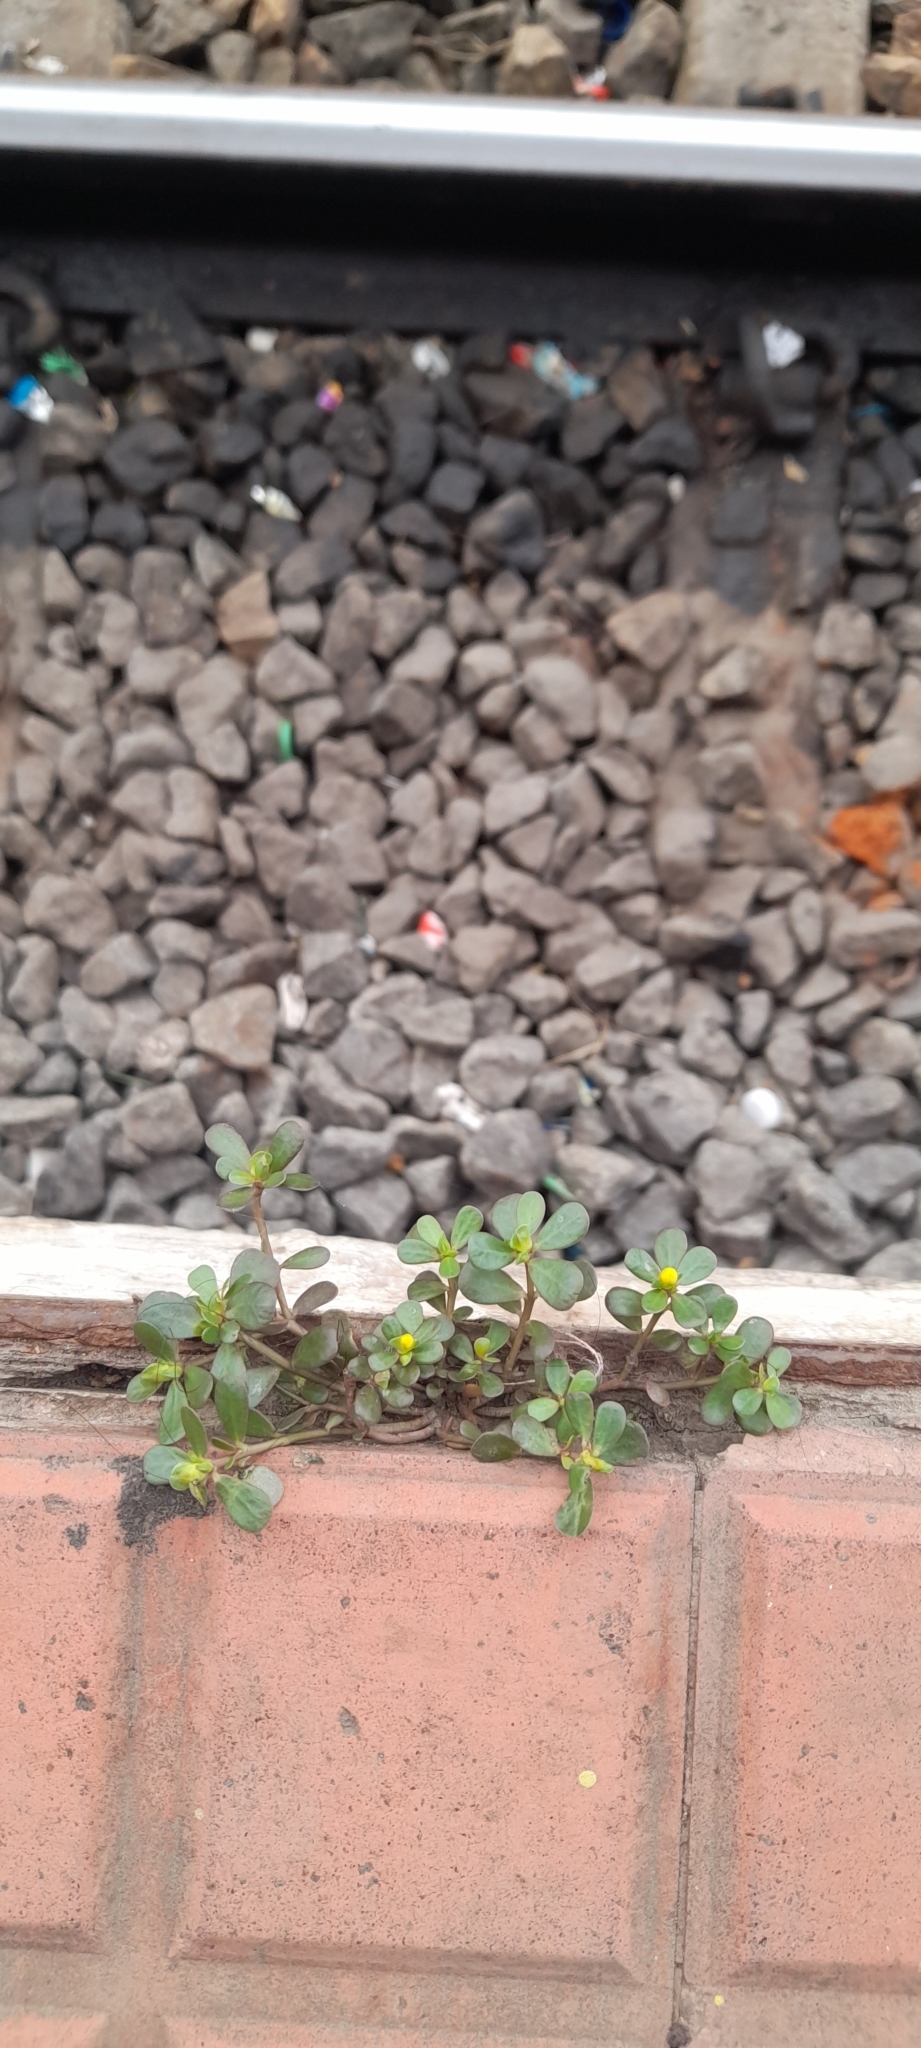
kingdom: Plantae
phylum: Tracheophyta
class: Magnoliopsida
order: Caryophyllales
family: Portulacaceae
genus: Portulaca
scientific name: Portulaca oleracea
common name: Common purslane
